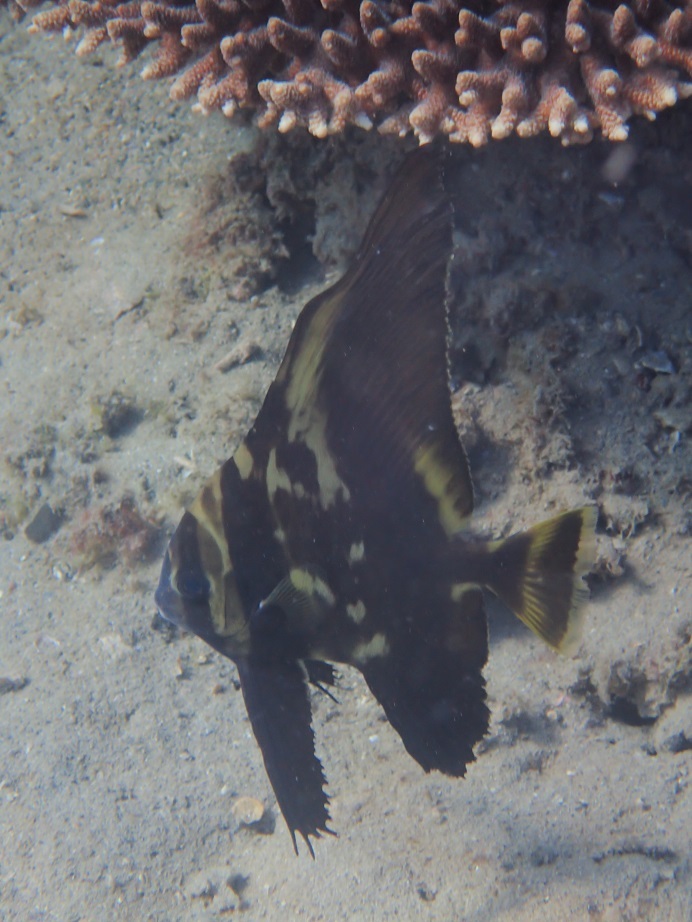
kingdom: Animalia
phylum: Chordata
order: Perciformes
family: Ephippidae
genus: Platax
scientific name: Platax batavianus
